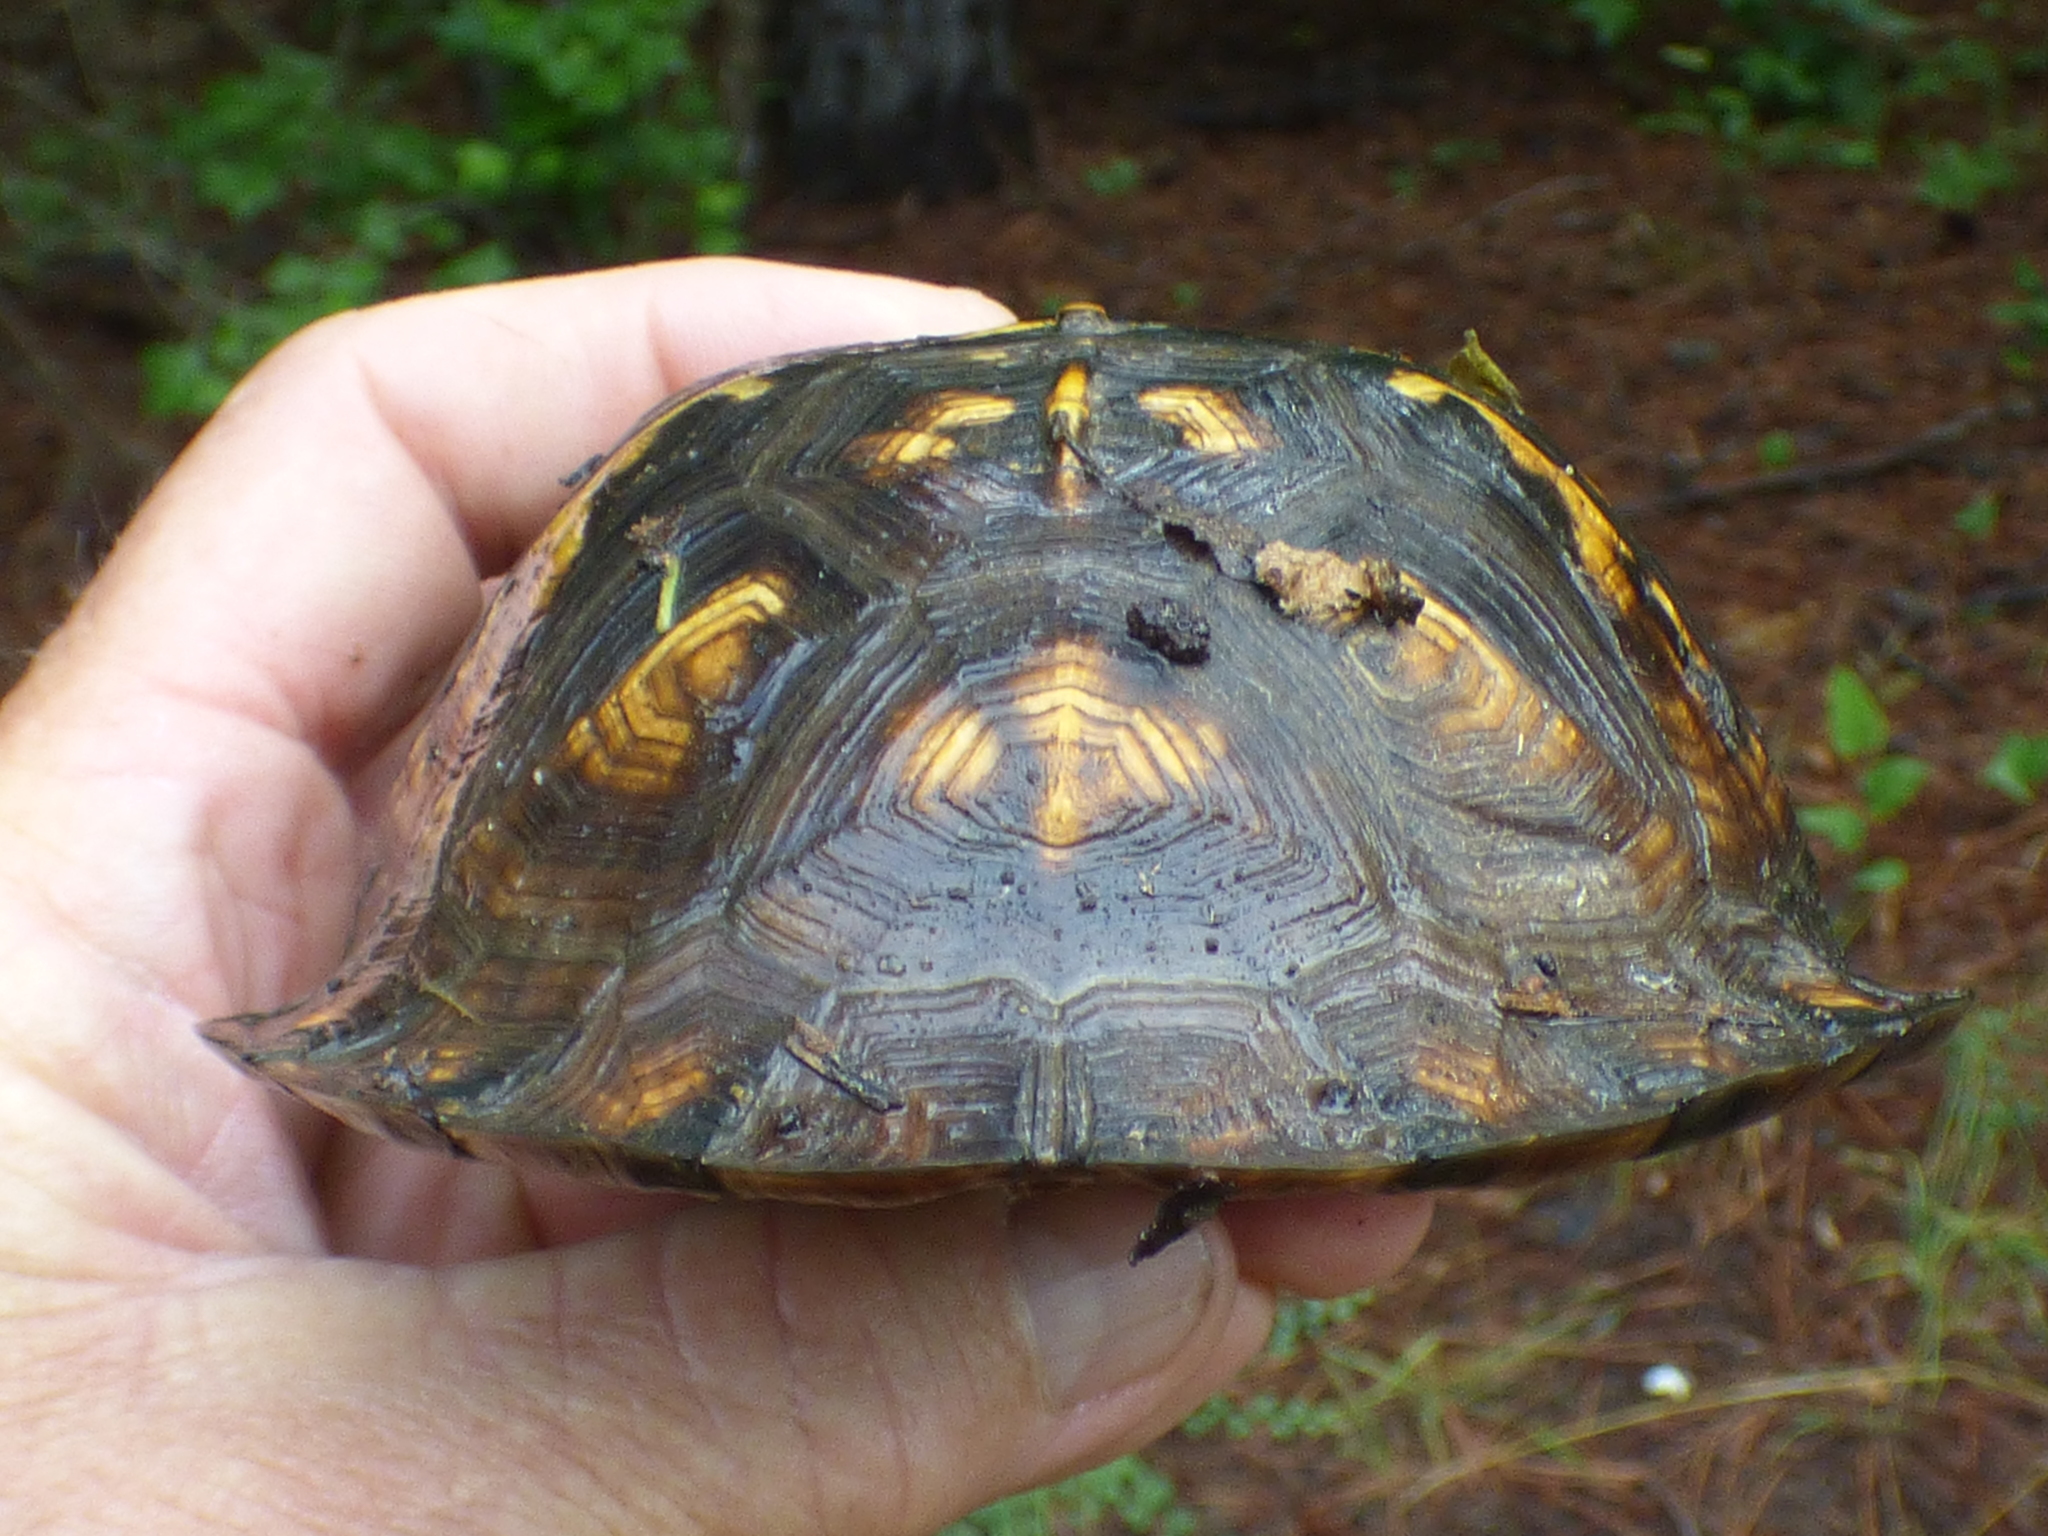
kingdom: Animalia
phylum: Chordata
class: Testudines
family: Emydidae
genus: Terrapene
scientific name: Terrapene carolina
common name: Common box turtle
